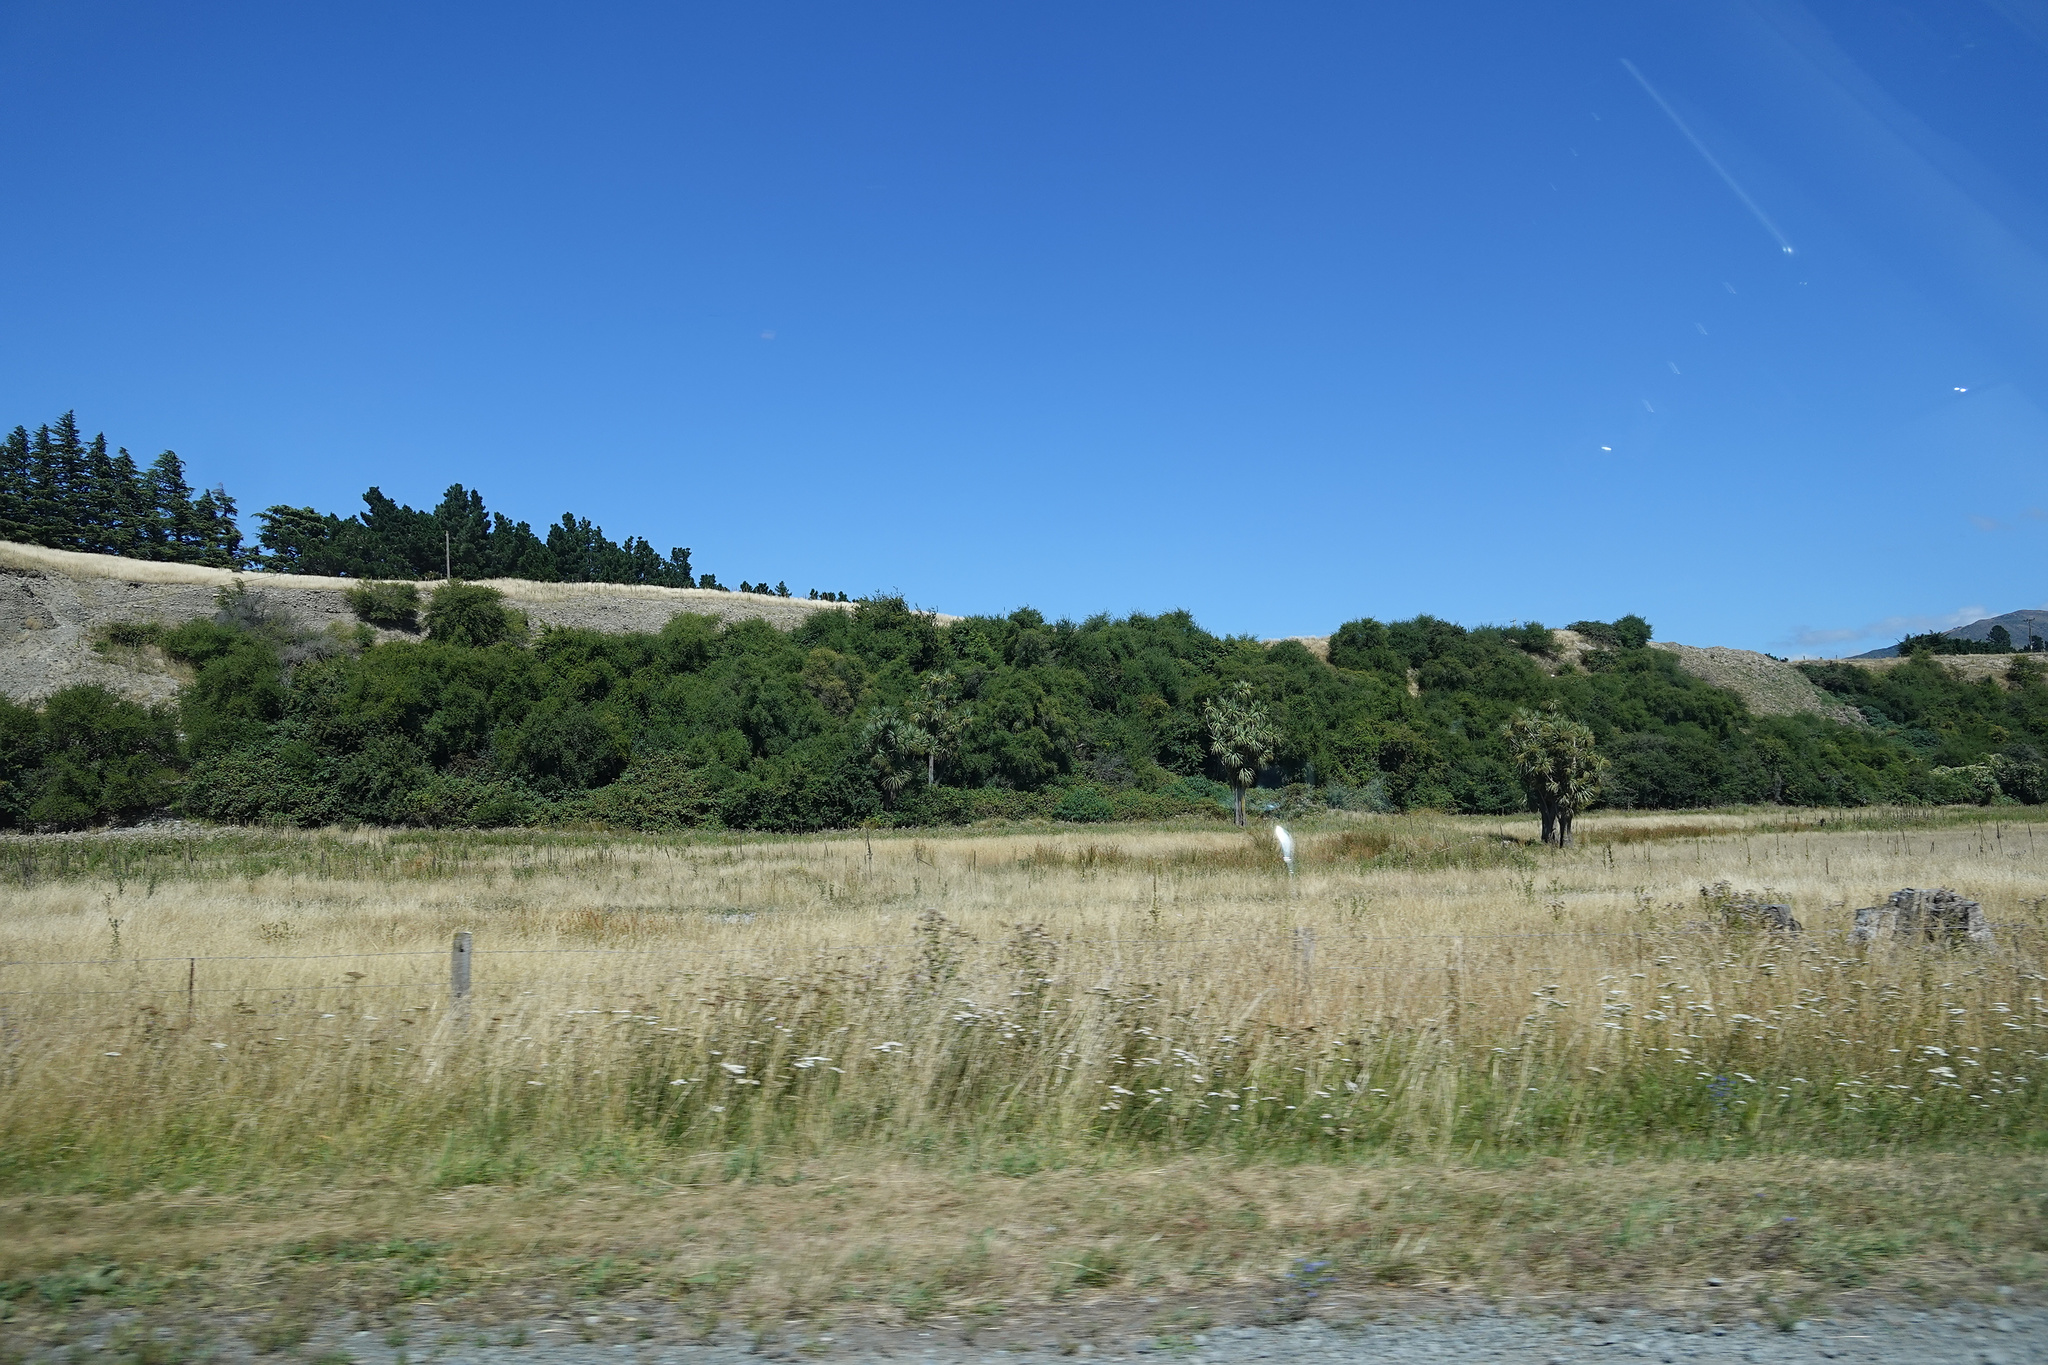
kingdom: Plantae
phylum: Tracheophyta
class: Liliopsida
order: Asparagales
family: Asparagaceae
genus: Cordyline
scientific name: Cordyline australis
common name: Cabbage-palm
